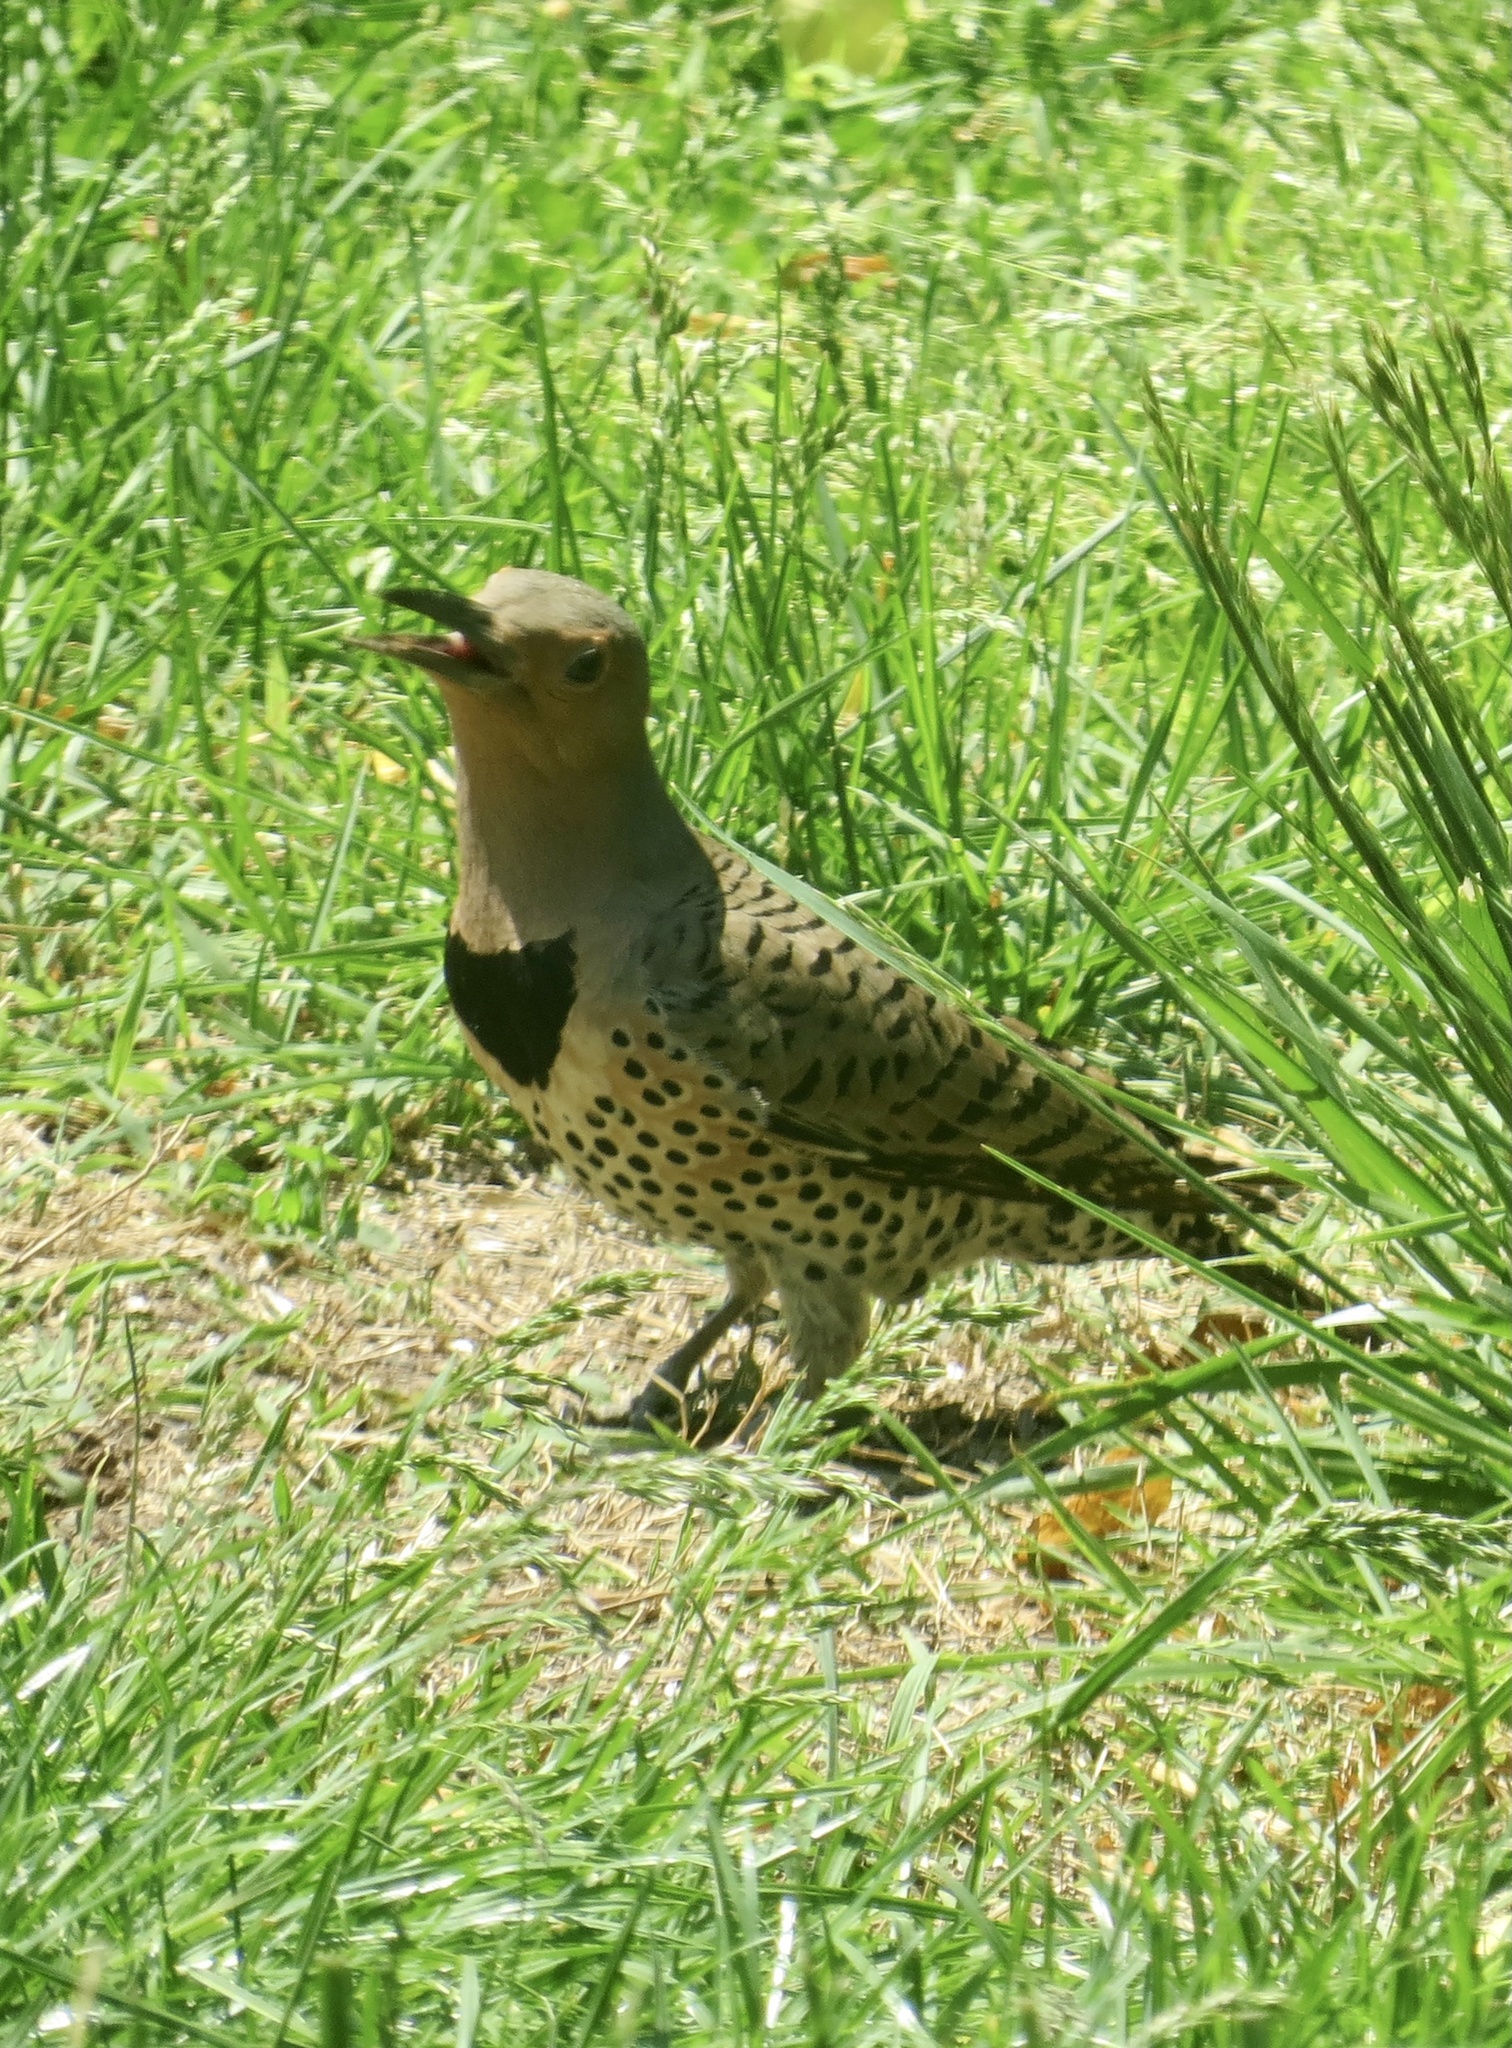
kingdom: Animalia
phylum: Chordata
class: Aves
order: Piciformes
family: Picidae
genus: Colaptes
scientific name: Colaptes auratus
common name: Northern flicker
